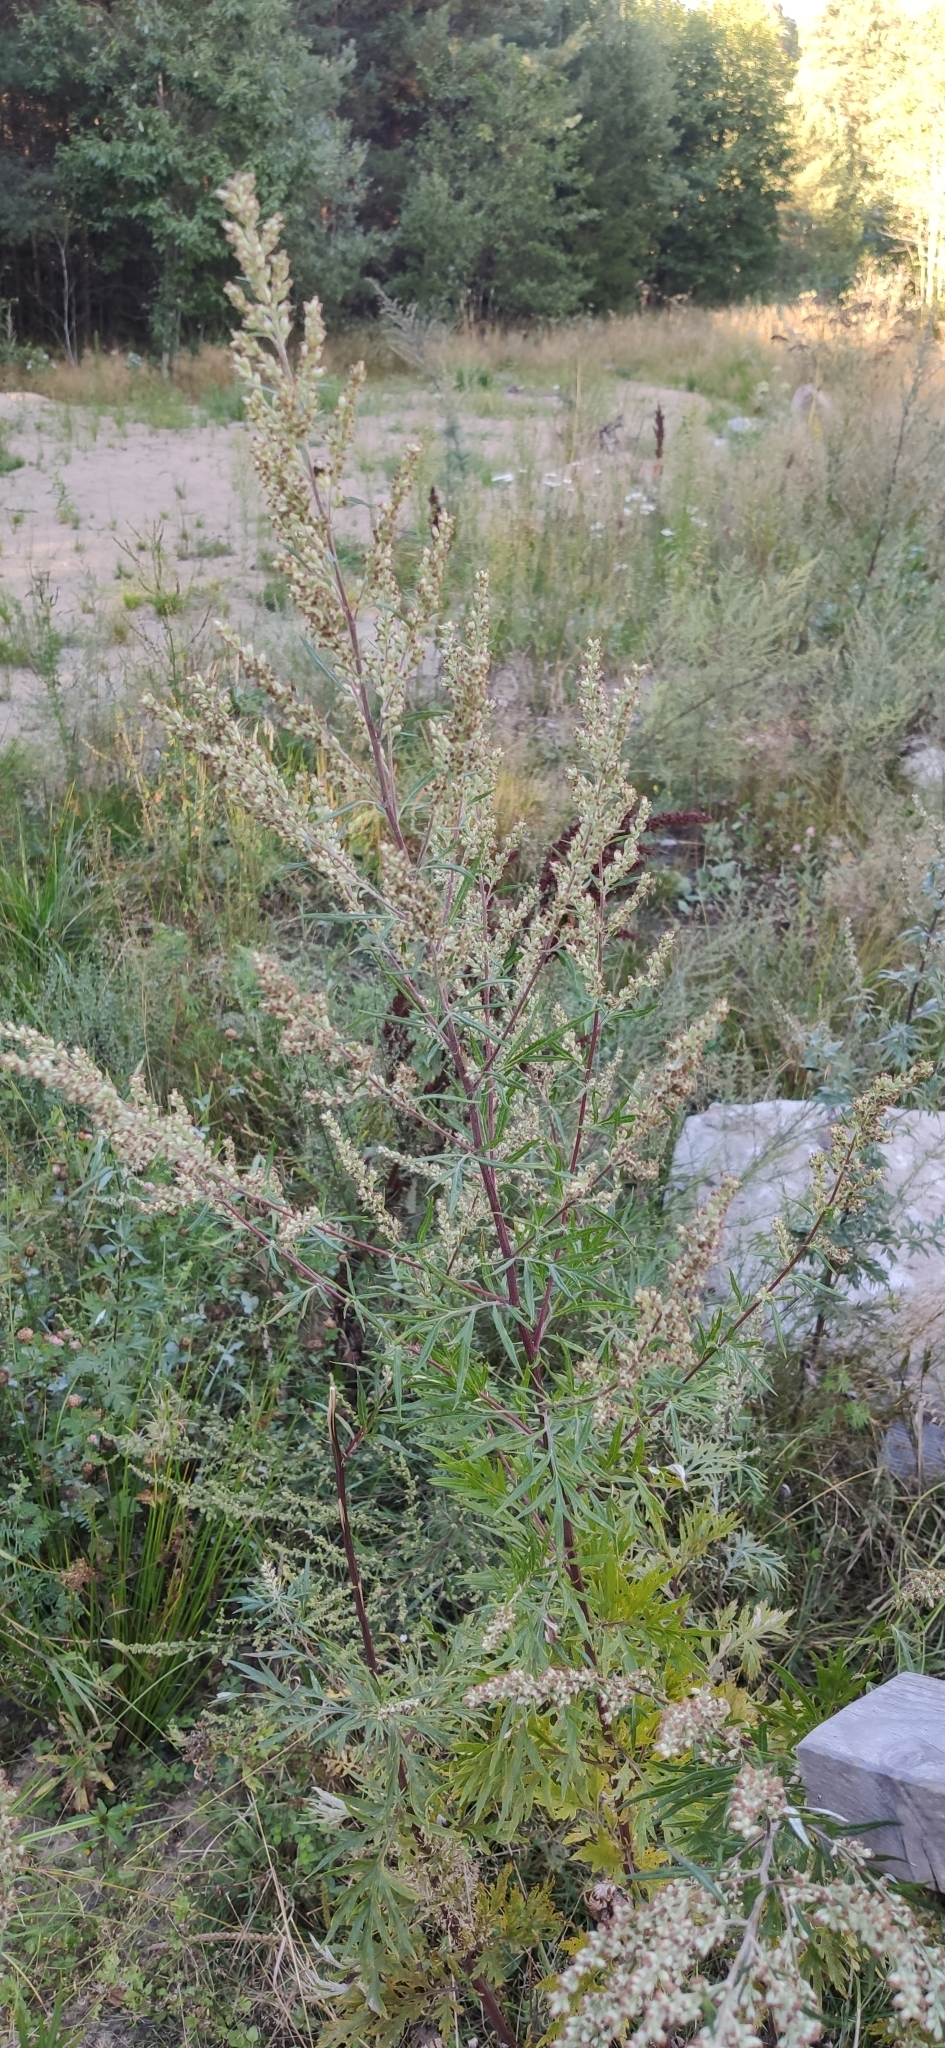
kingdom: Plantae
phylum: Tracheophyta
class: Magnoliopsida
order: Asterales
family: Asteraceae
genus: Artemisia
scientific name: Artemisia vulgaris
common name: Mugwort
